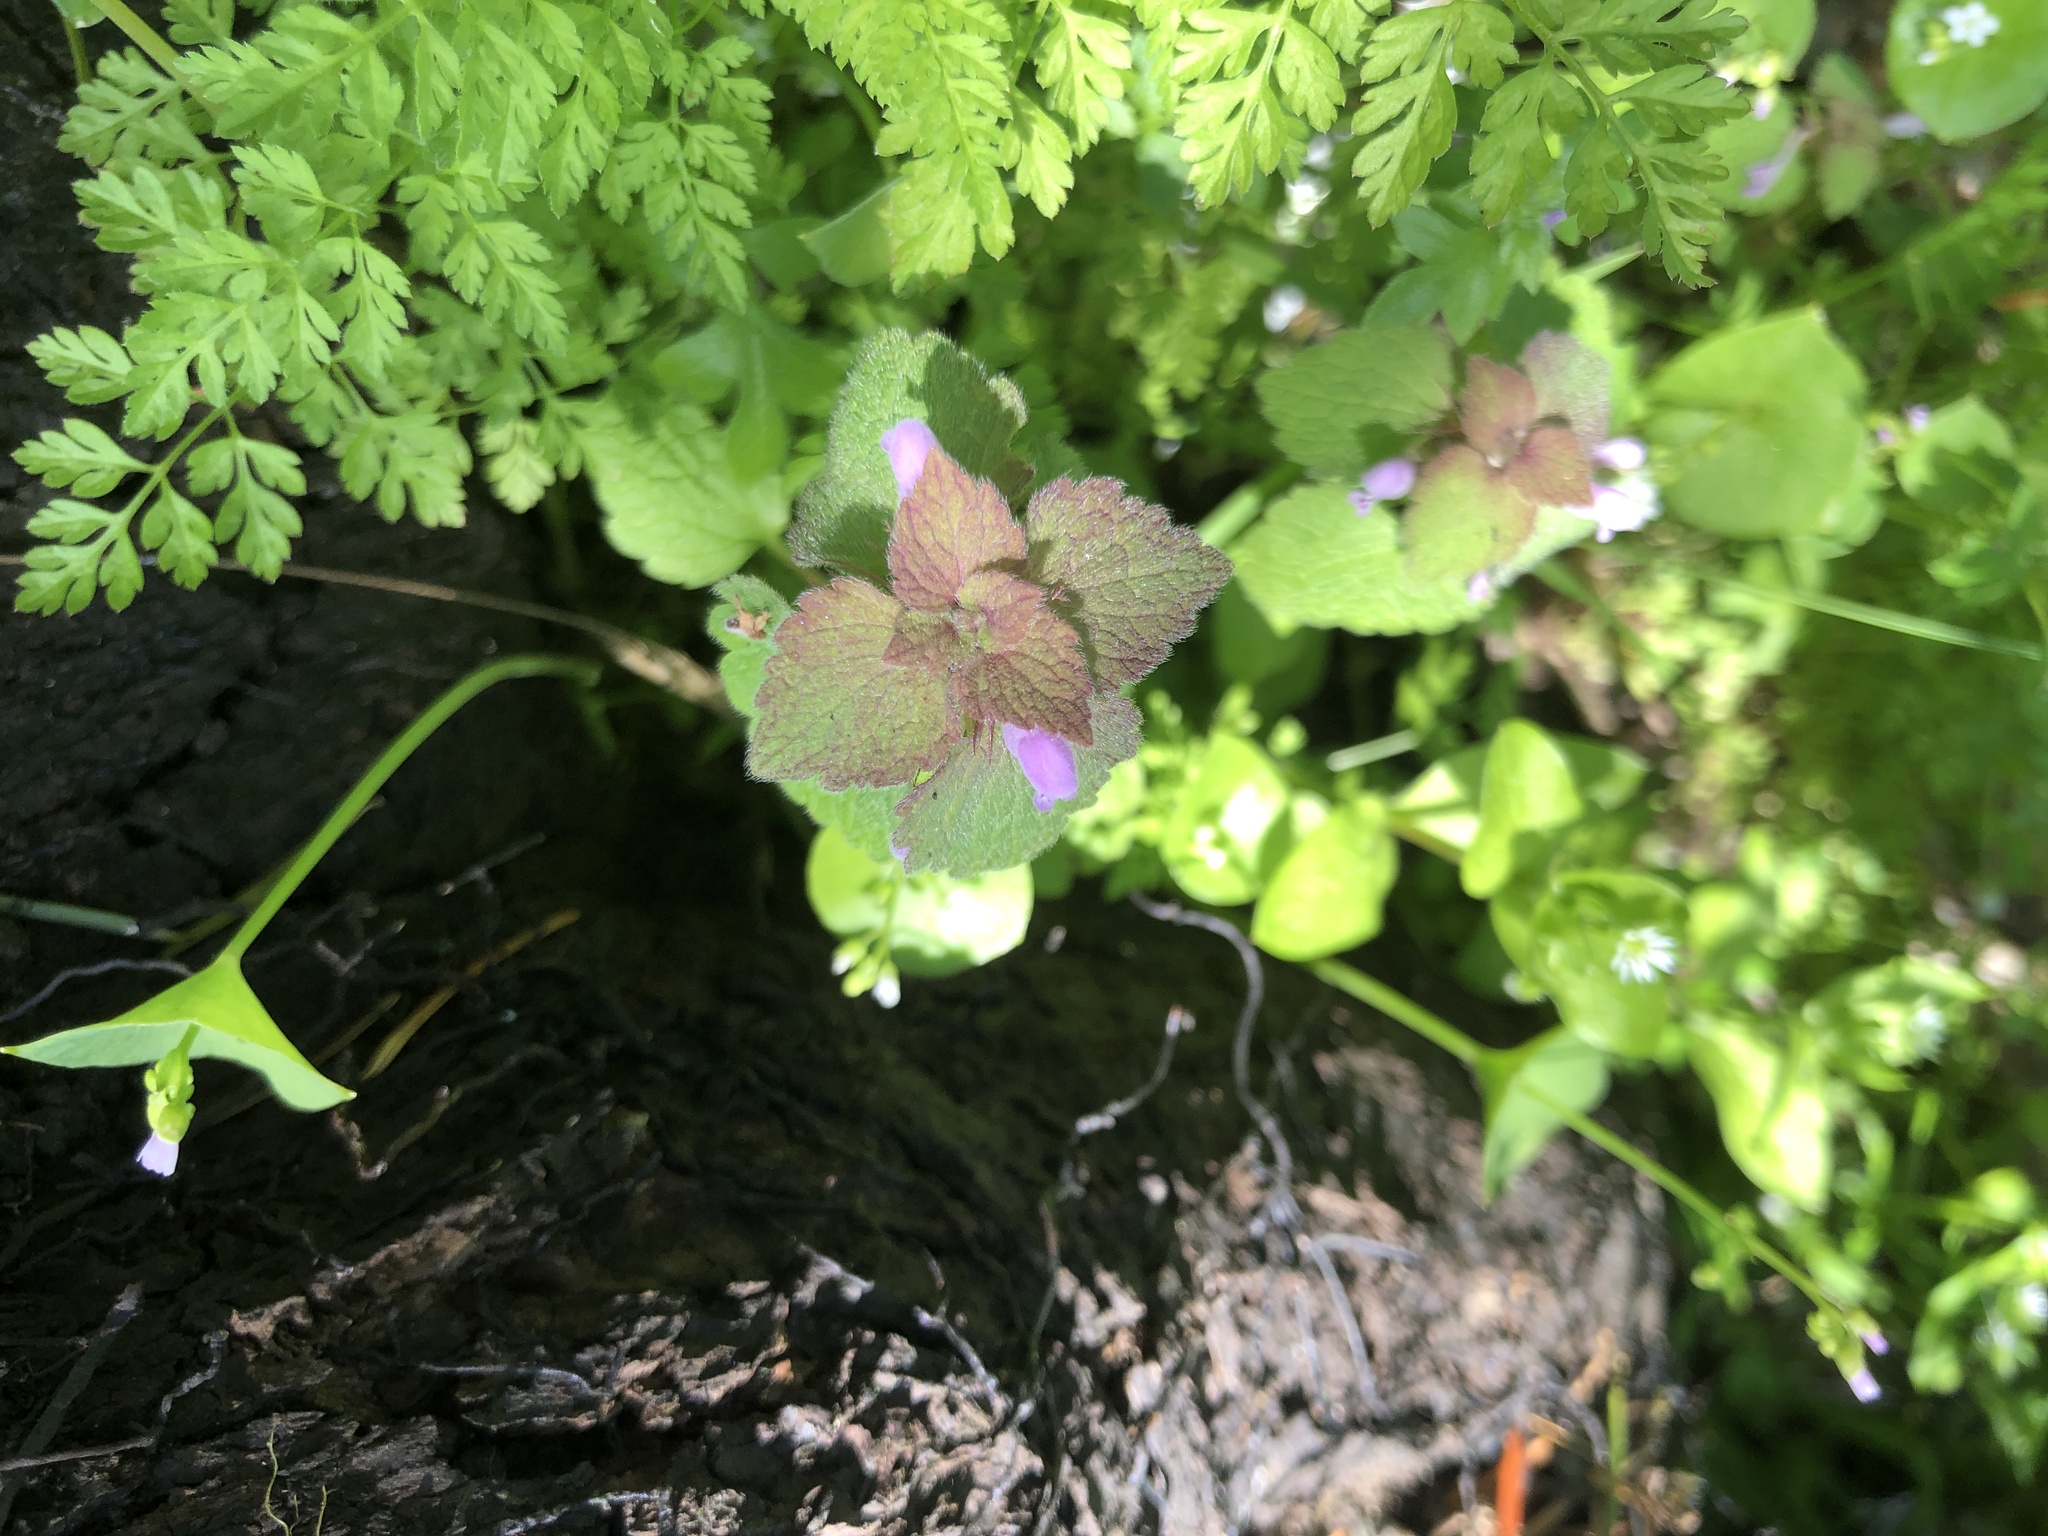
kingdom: Plantae
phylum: Tracheophyta
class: Magnoliopsida
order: Lamiales
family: Lamiaceae
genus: Lamium
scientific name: Lamium purpureum
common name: Red dead-nettle
